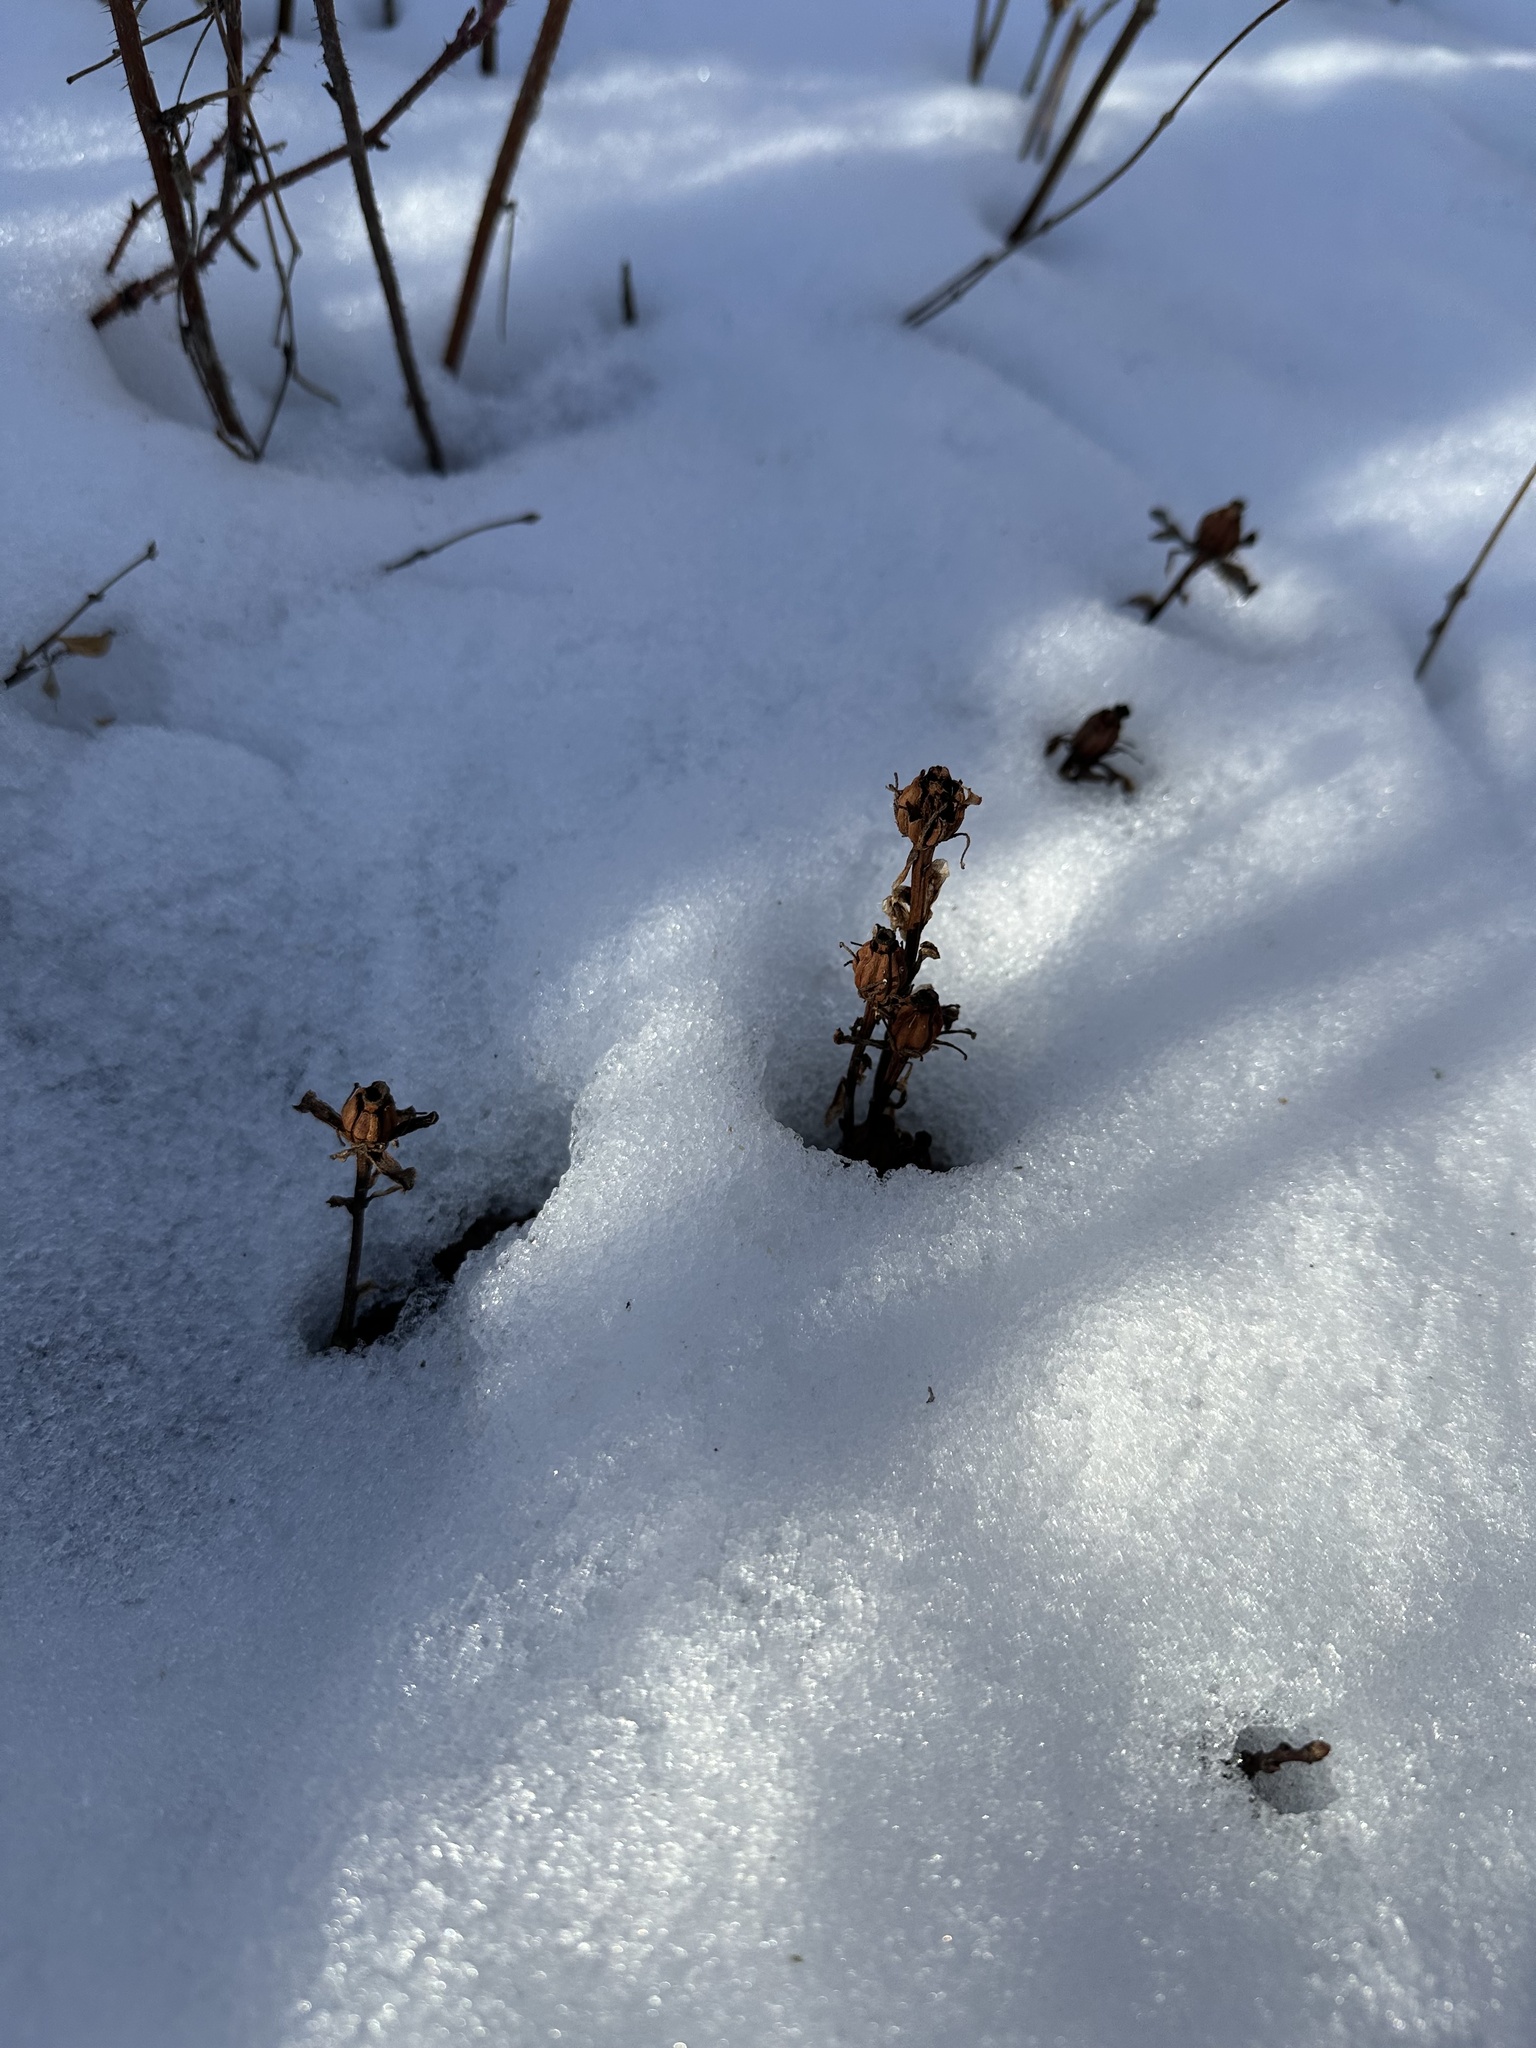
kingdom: Plantae
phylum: Tracheophyta
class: Magnoliopsida
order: Ericales
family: Ericaceae
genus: Monotropa
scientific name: Monotropa uniflora
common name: Convulsion root
